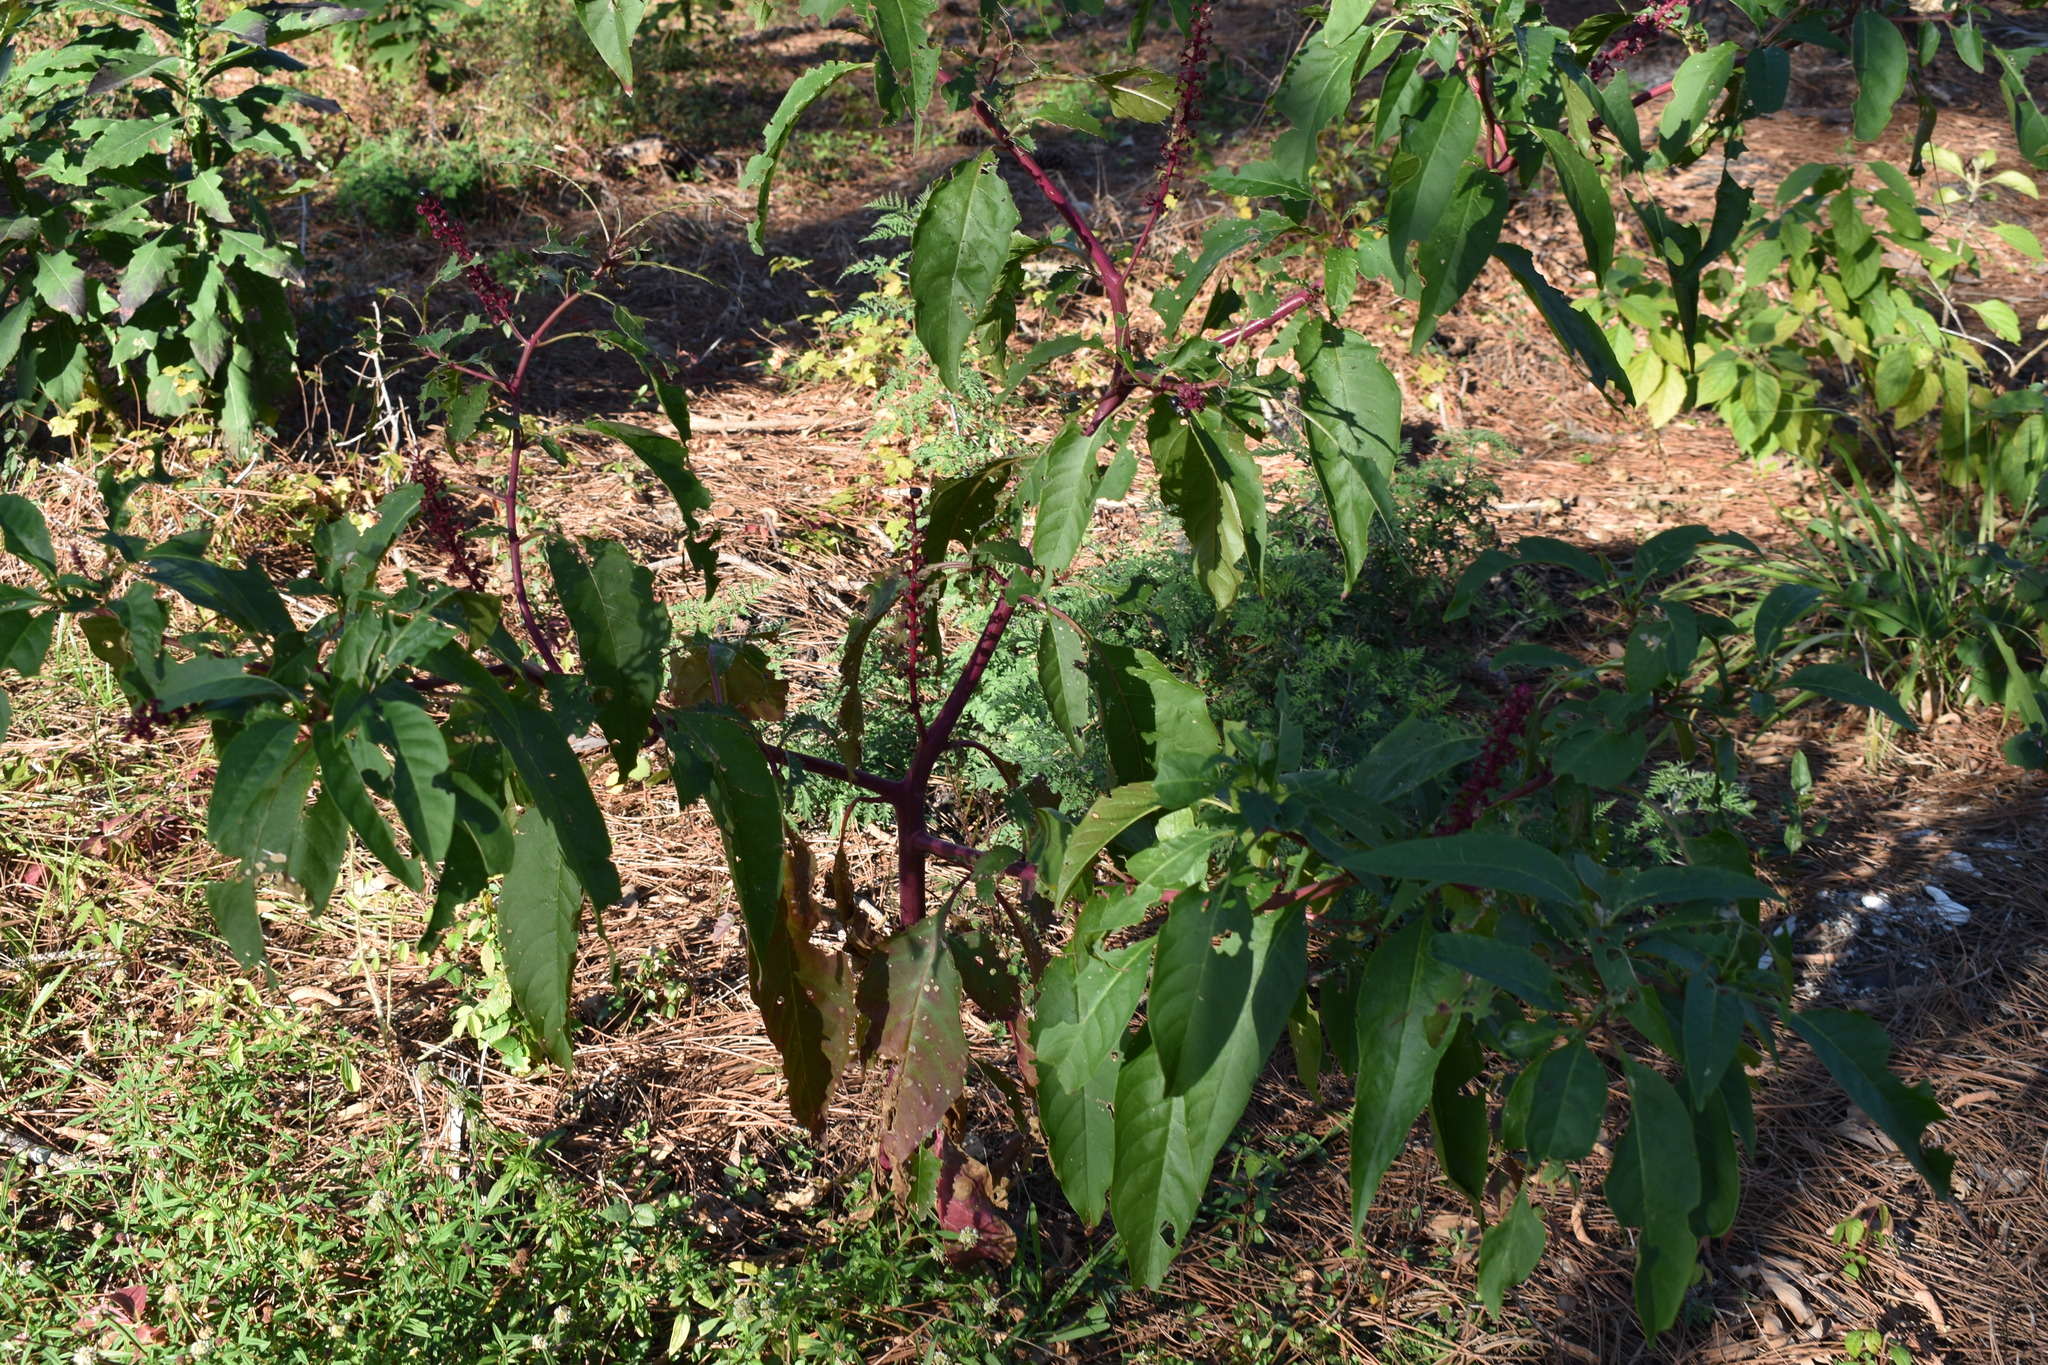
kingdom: Plantae
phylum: Tracheophyta
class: Magnoliopsida
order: Caryophyllales
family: Phytolaccaceae
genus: Phytolacca
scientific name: Phytolacca americana
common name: American pokeweed
